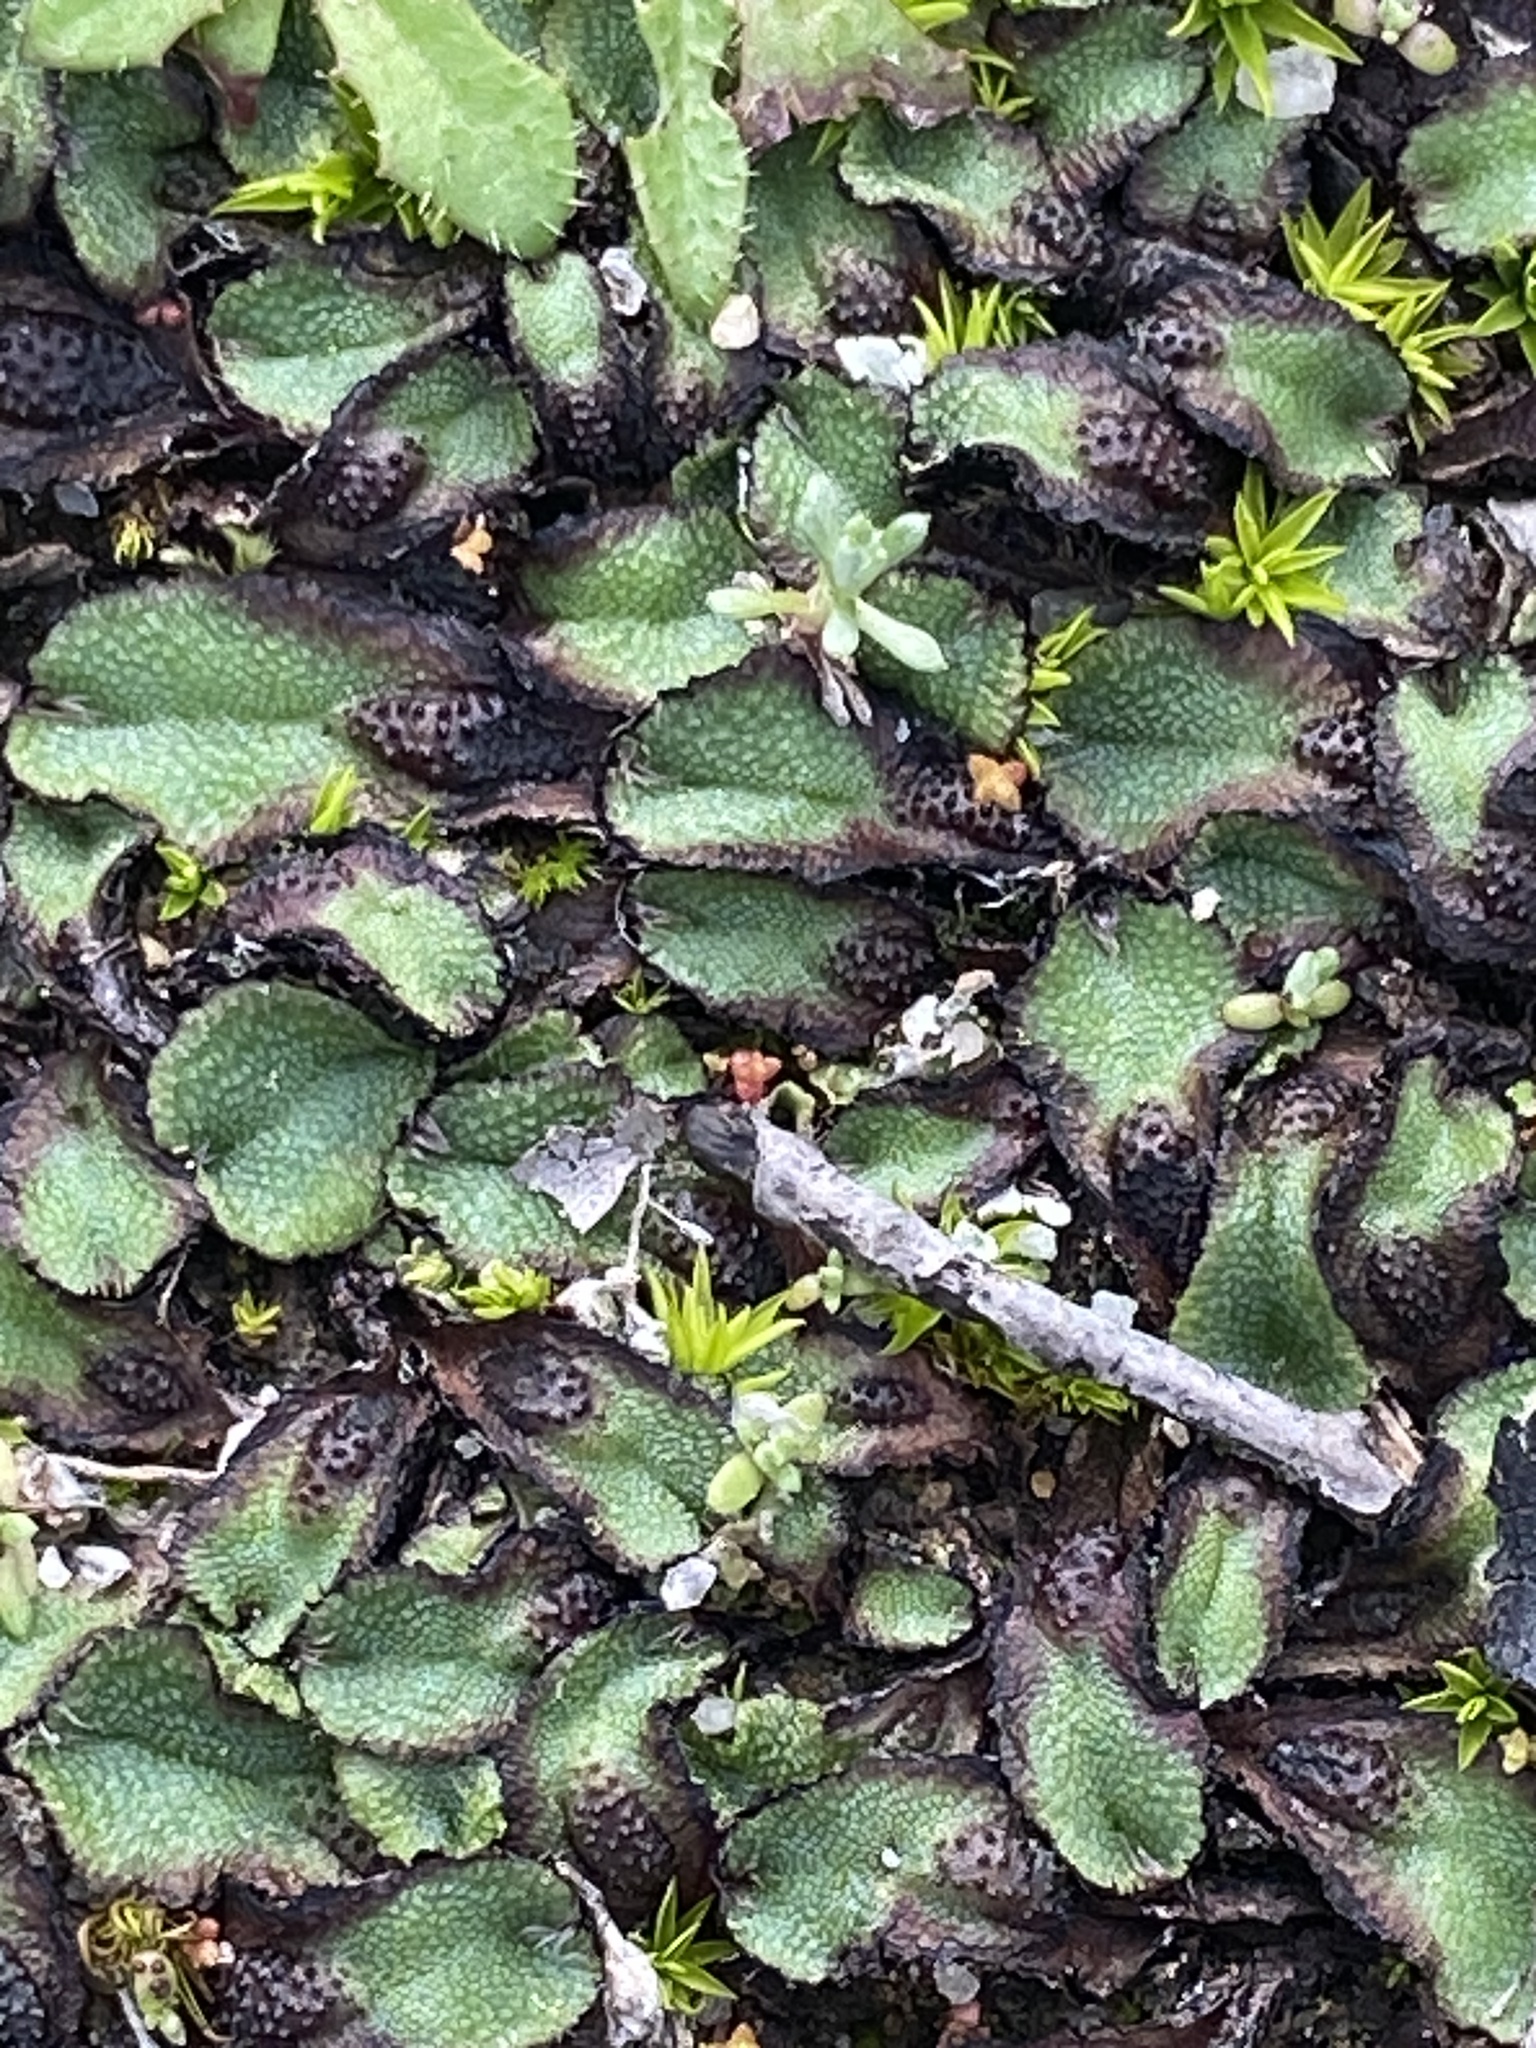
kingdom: Plantae
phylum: Marchantiophyta
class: Marchantiopsida
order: Marchantiales
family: Aytoniaceae
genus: Asterella
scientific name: Asterella californica
